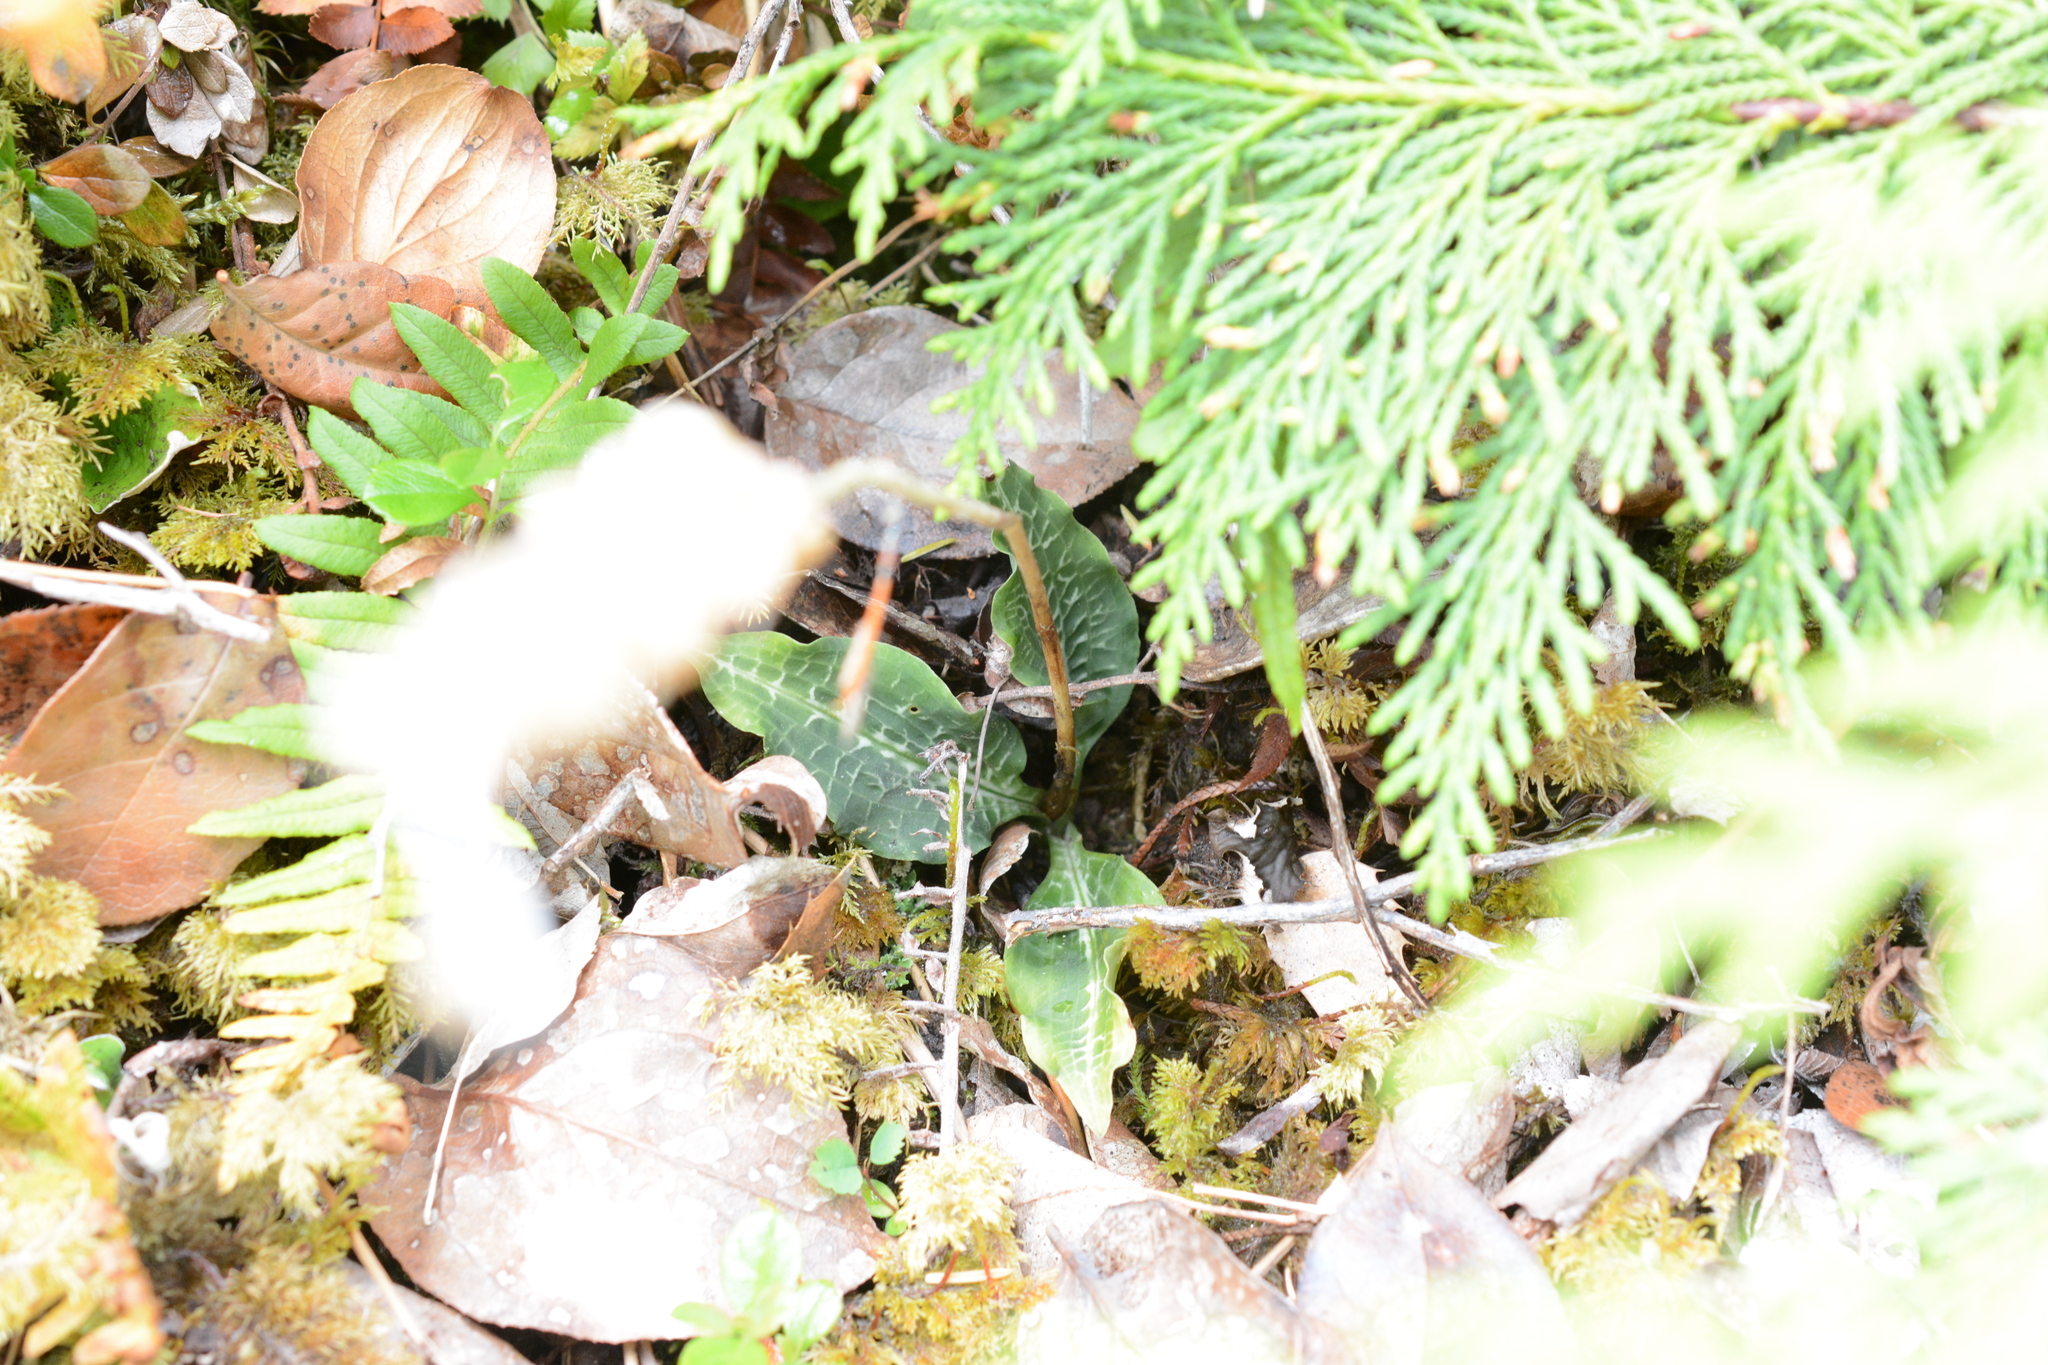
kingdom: Plantae
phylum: Tracheophyta
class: Liliopsida
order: Asparagales
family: Orchidaceae
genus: Goodyera
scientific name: Goodyera oblongifolia
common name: Giant rattlesnake-plantain
